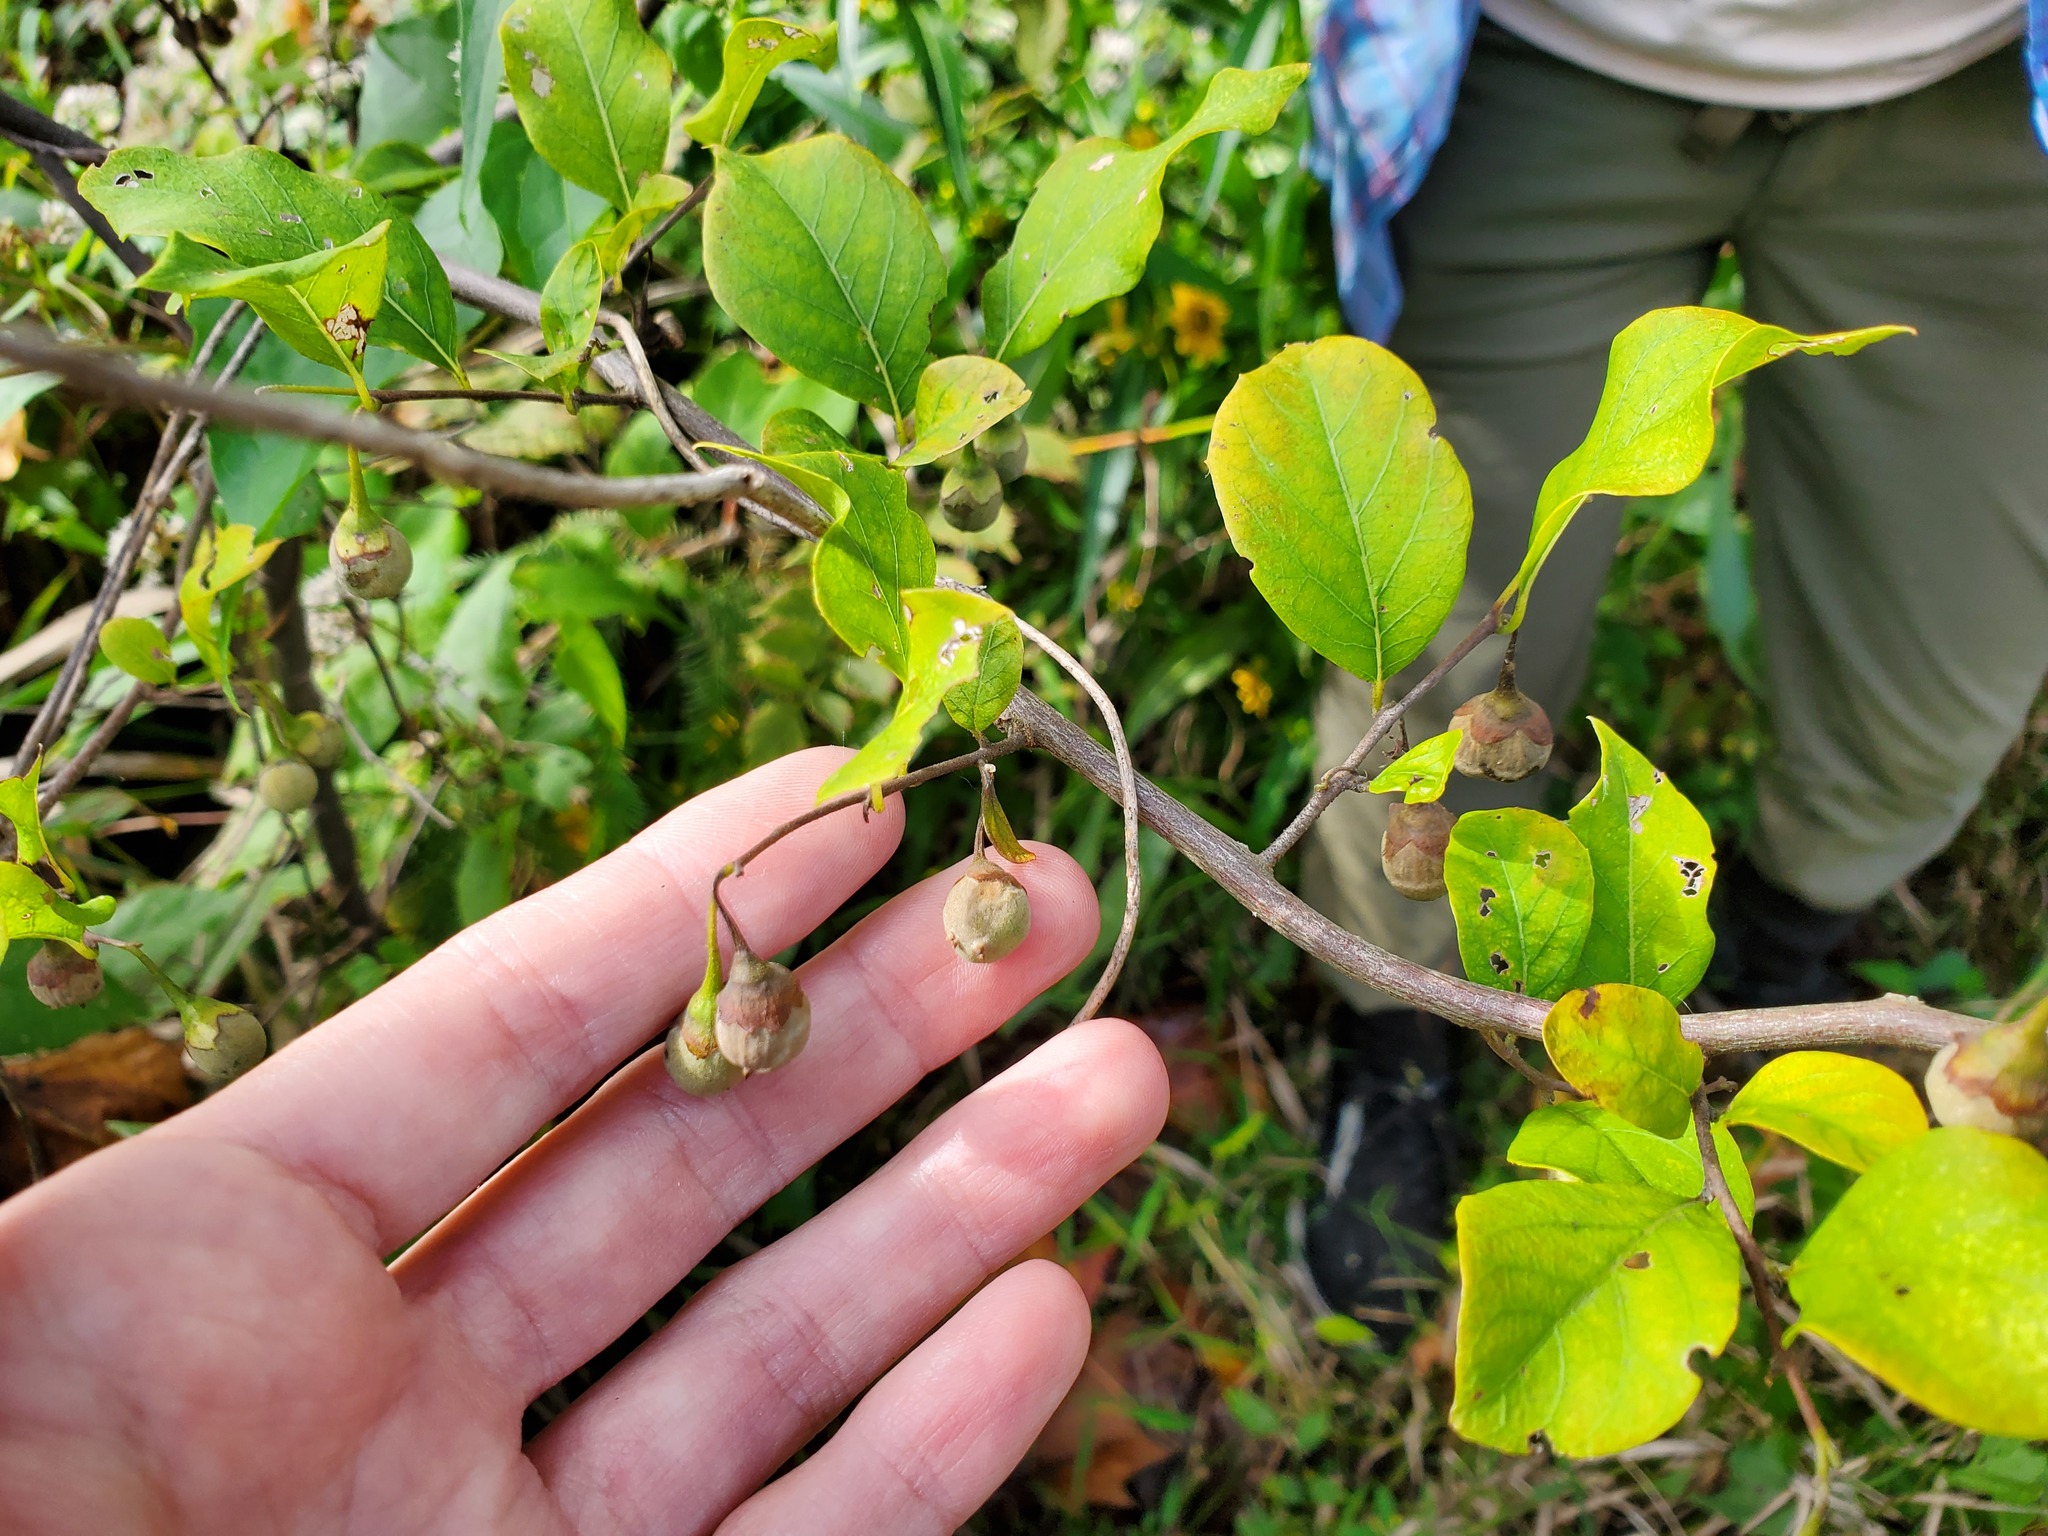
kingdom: Plantae
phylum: Tracheophyta
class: Magnoliopsida
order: Ericales
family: Styracaceae
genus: Styrax
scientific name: Styrax americanus
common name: American snowbell
